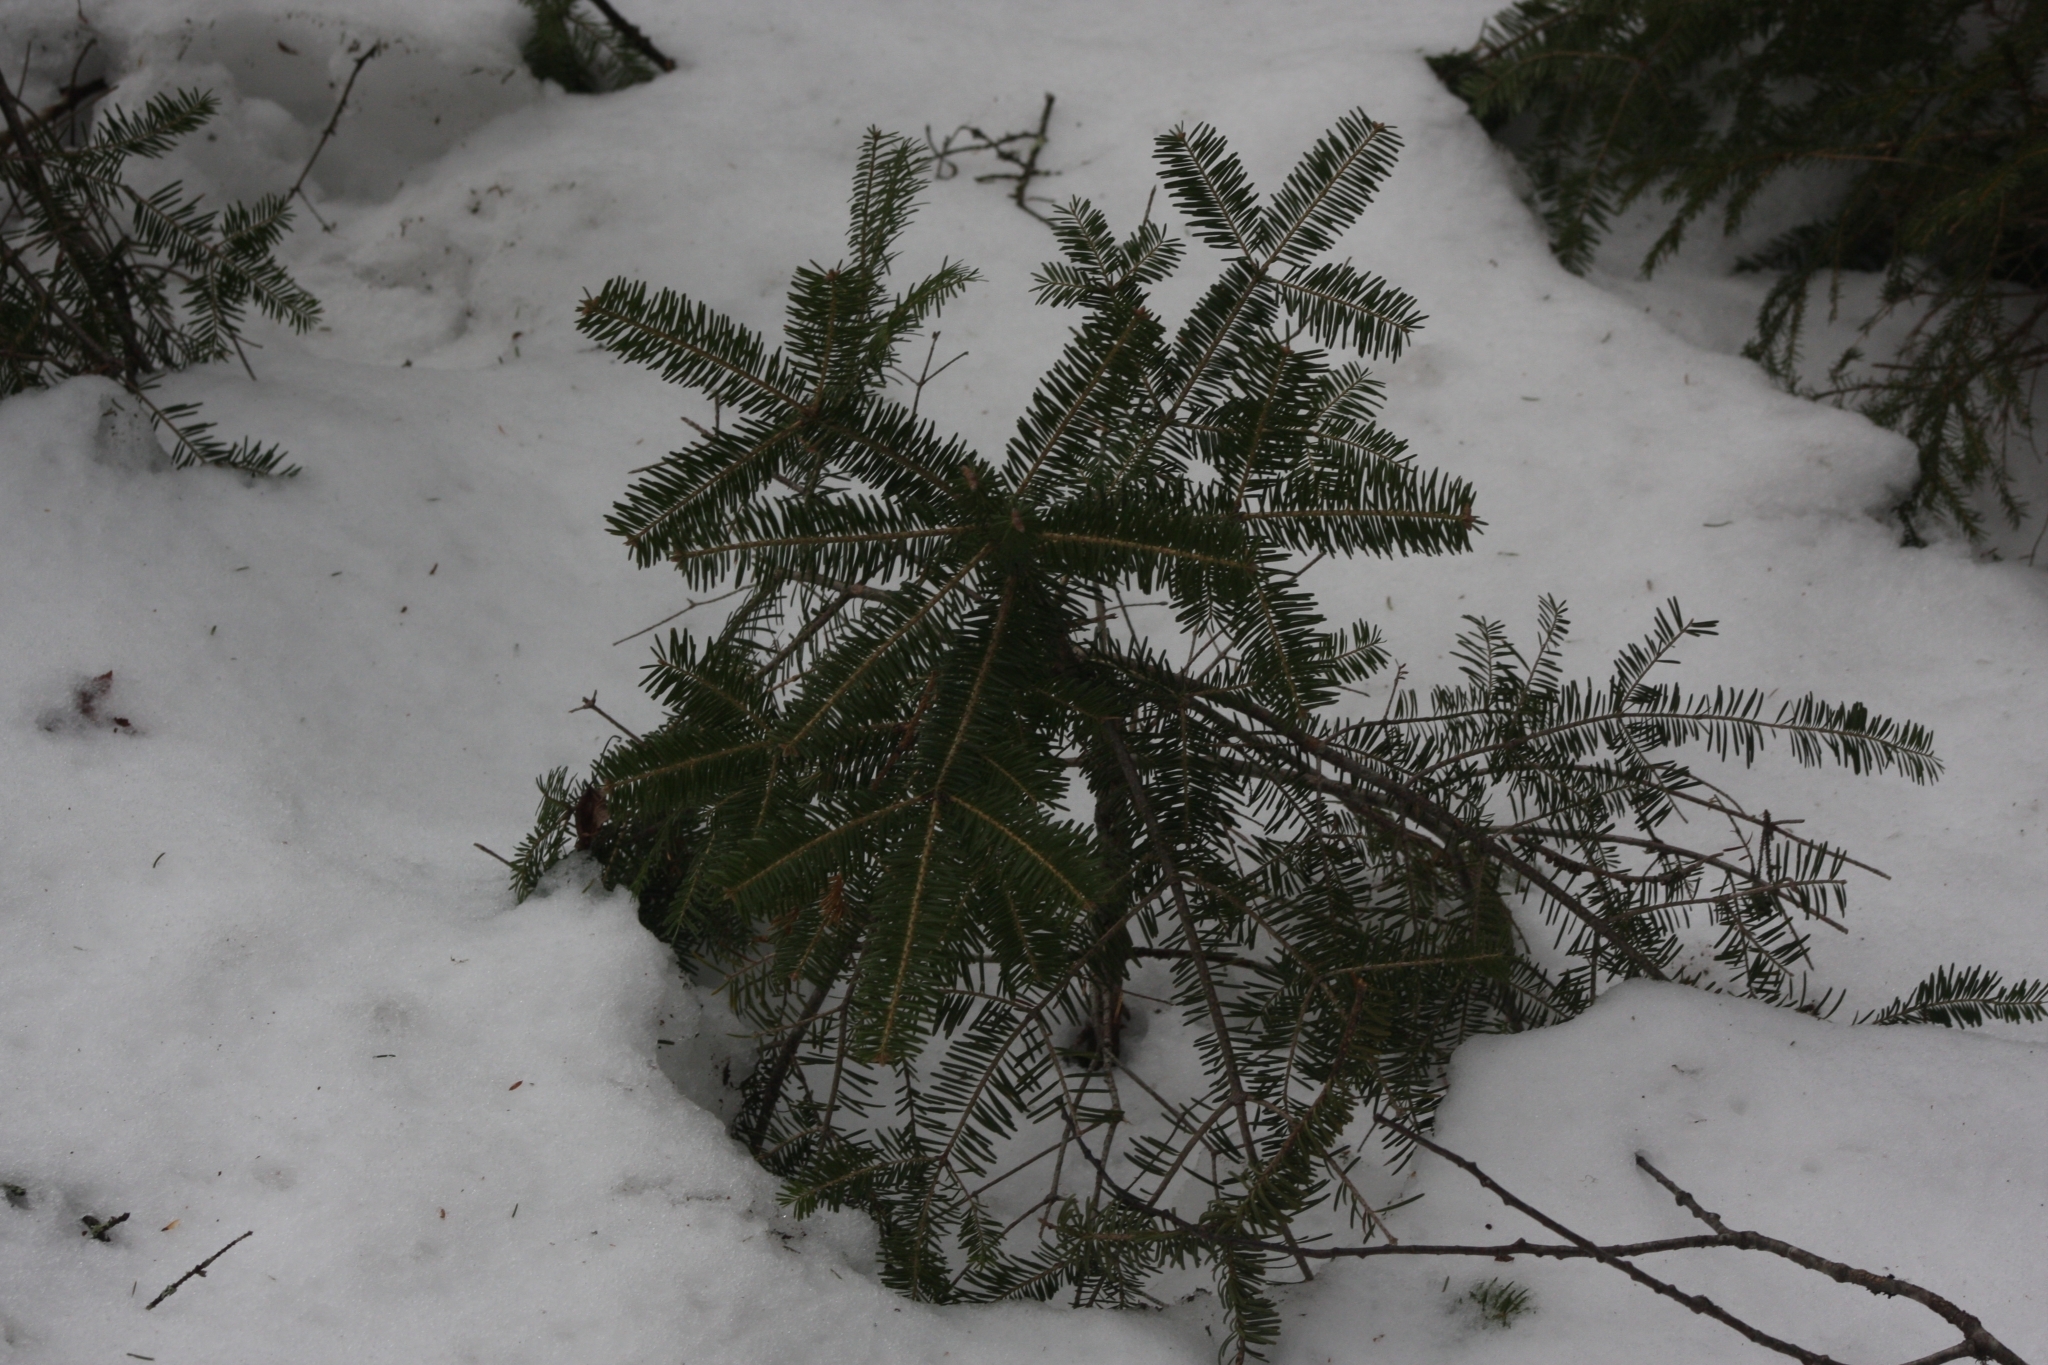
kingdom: Plantae
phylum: Tracheophyta
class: Pinopsida
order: Pinales
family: Pinaceae
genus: Abies
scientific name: Abies balsamea
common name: Balsam fir
